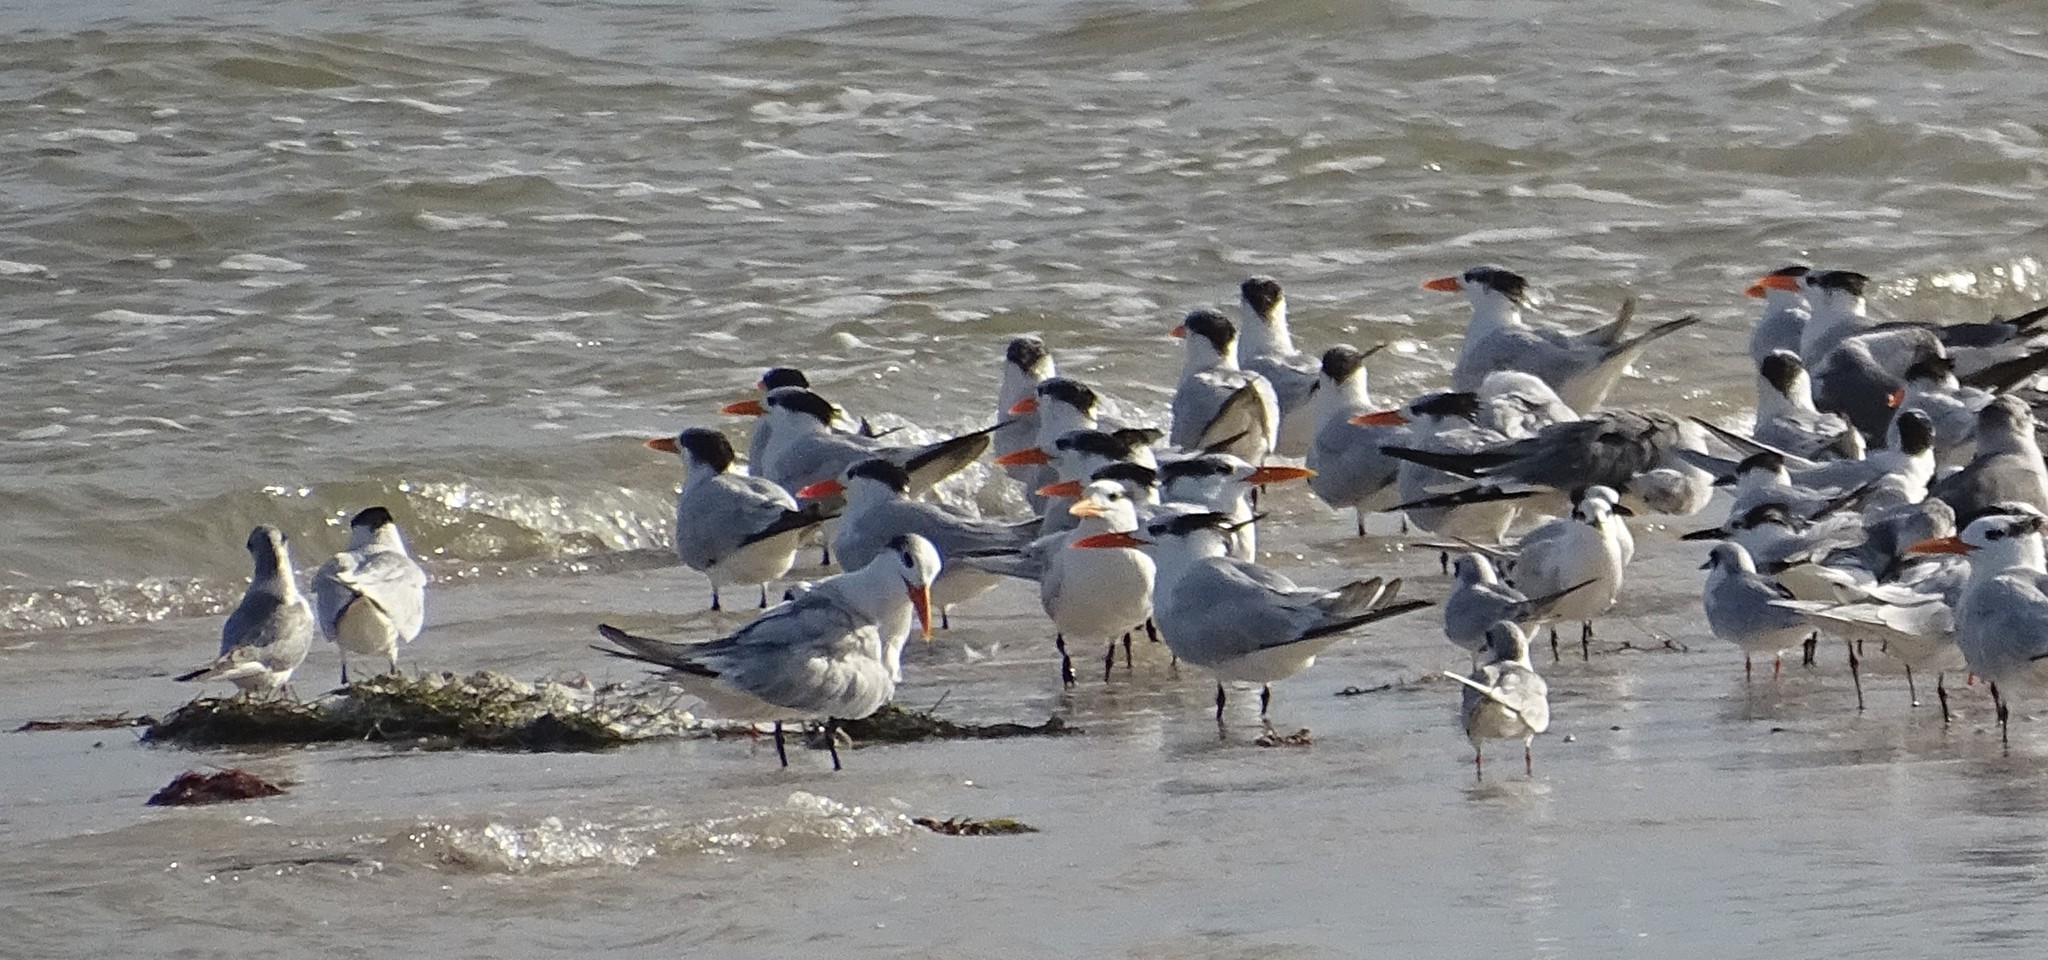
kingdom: Animalia
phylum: Chordata
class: Aves
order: Charadriiformes
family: Laridae
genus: Thalasseus
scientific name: Thalasseus maximus
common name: Royal tern
